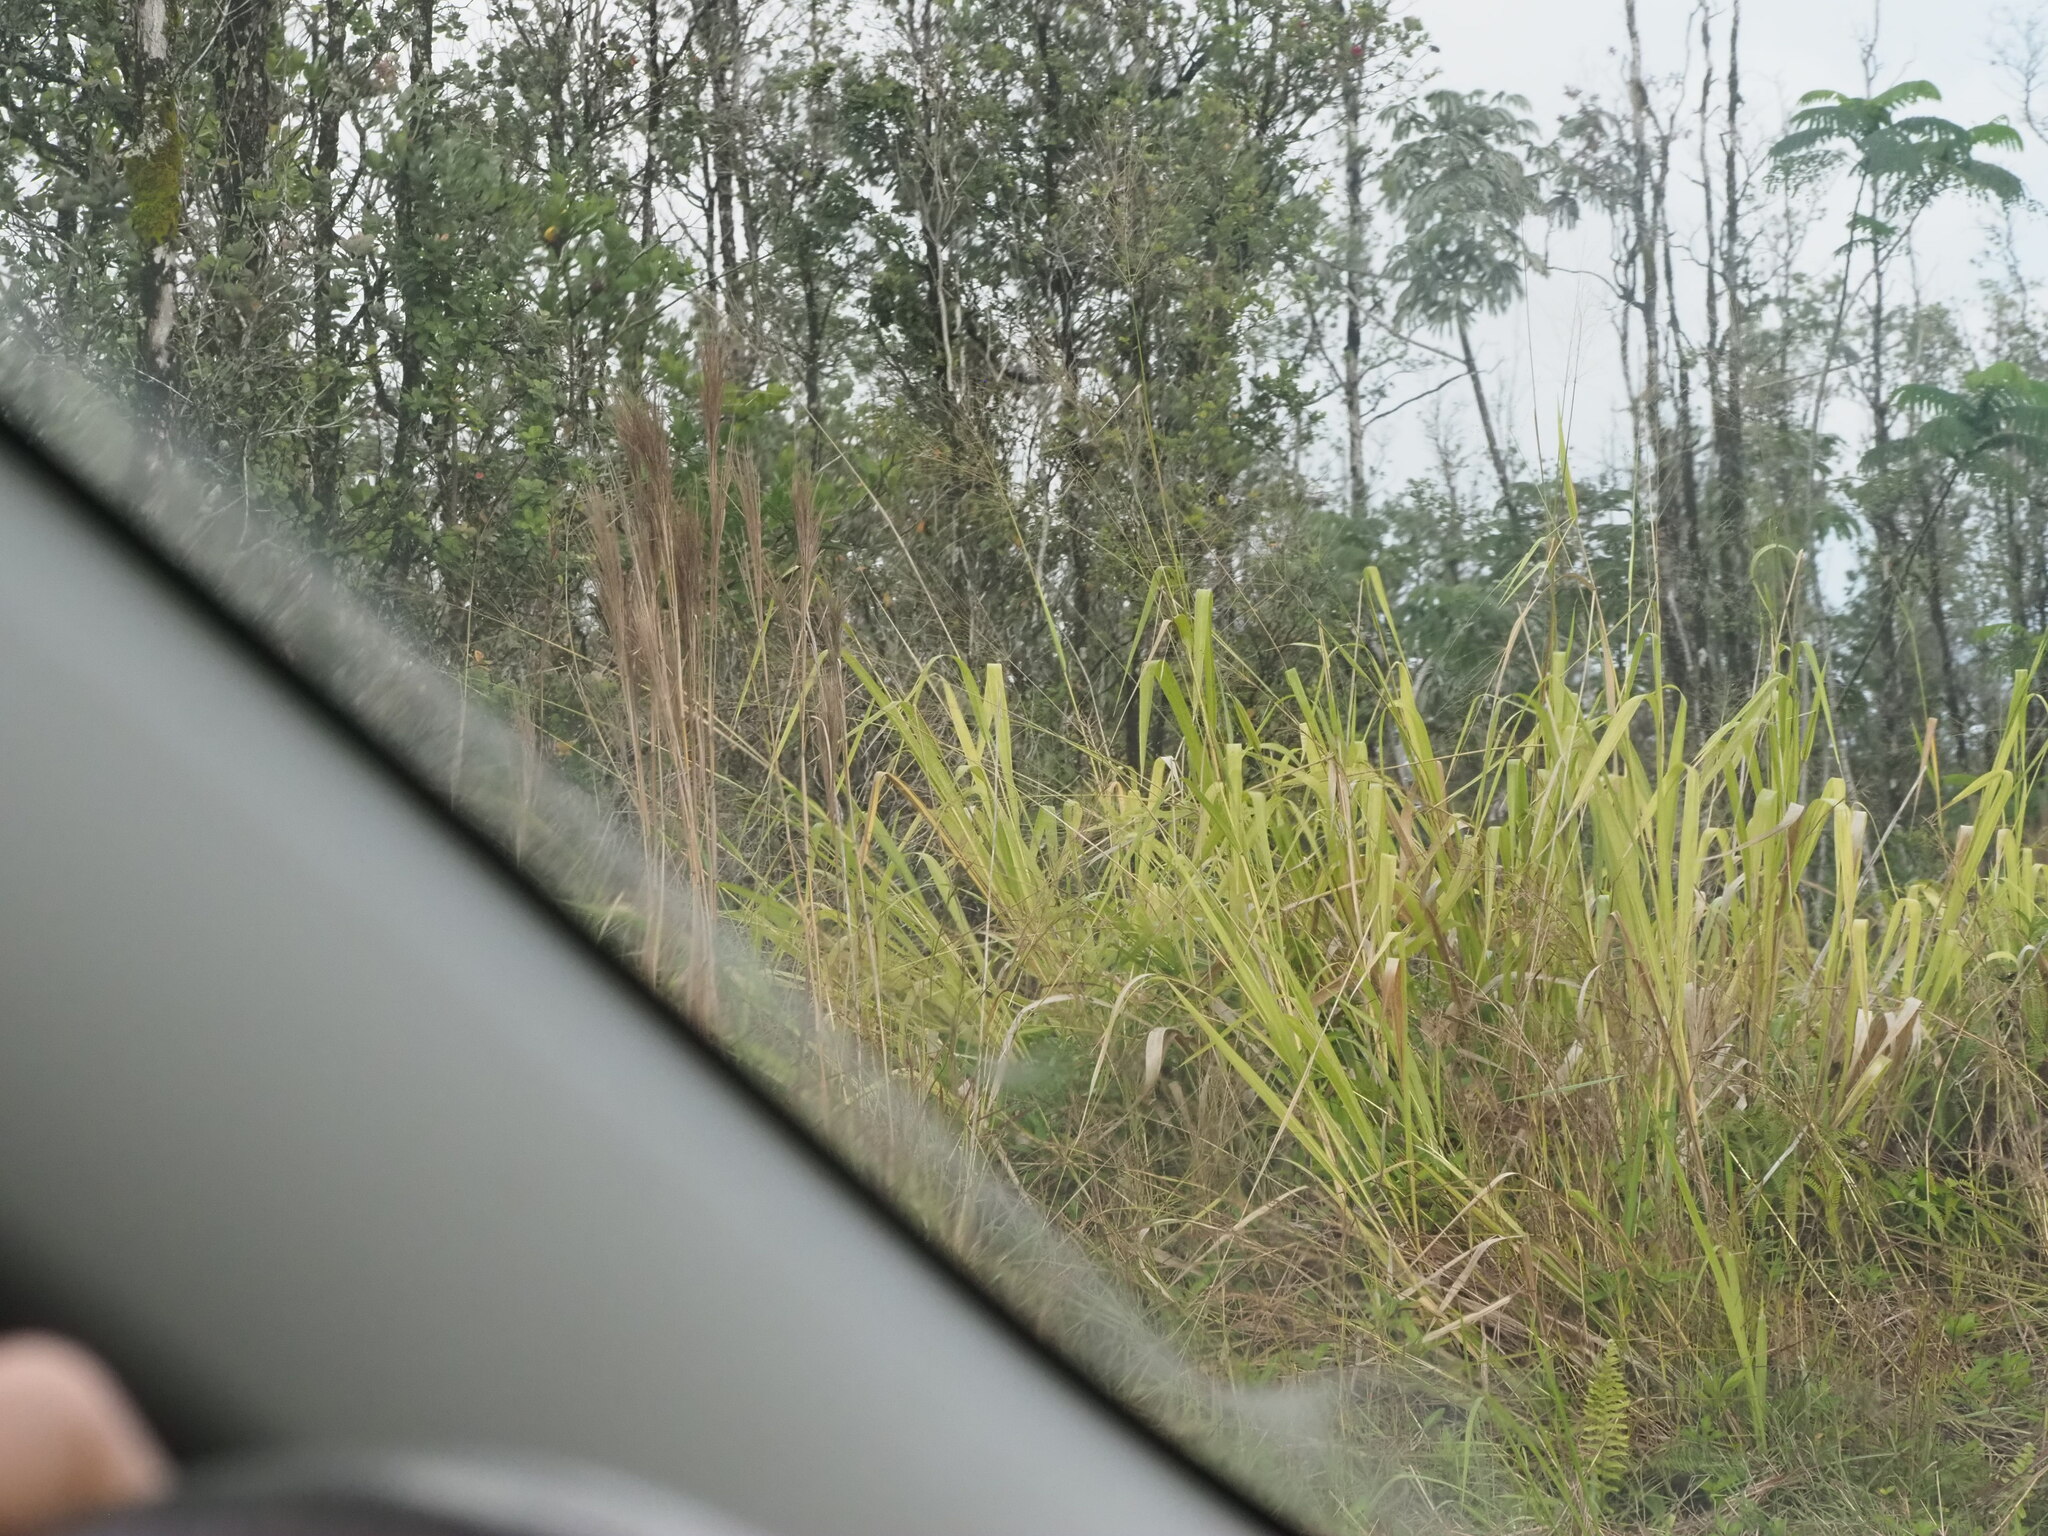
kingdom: Plantae
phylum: Tracheophyta
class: Liliopsida
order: Poales
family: Poaceae
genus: Megathyrsus
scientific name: Megathyrsus maximus
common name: Guineagrass
